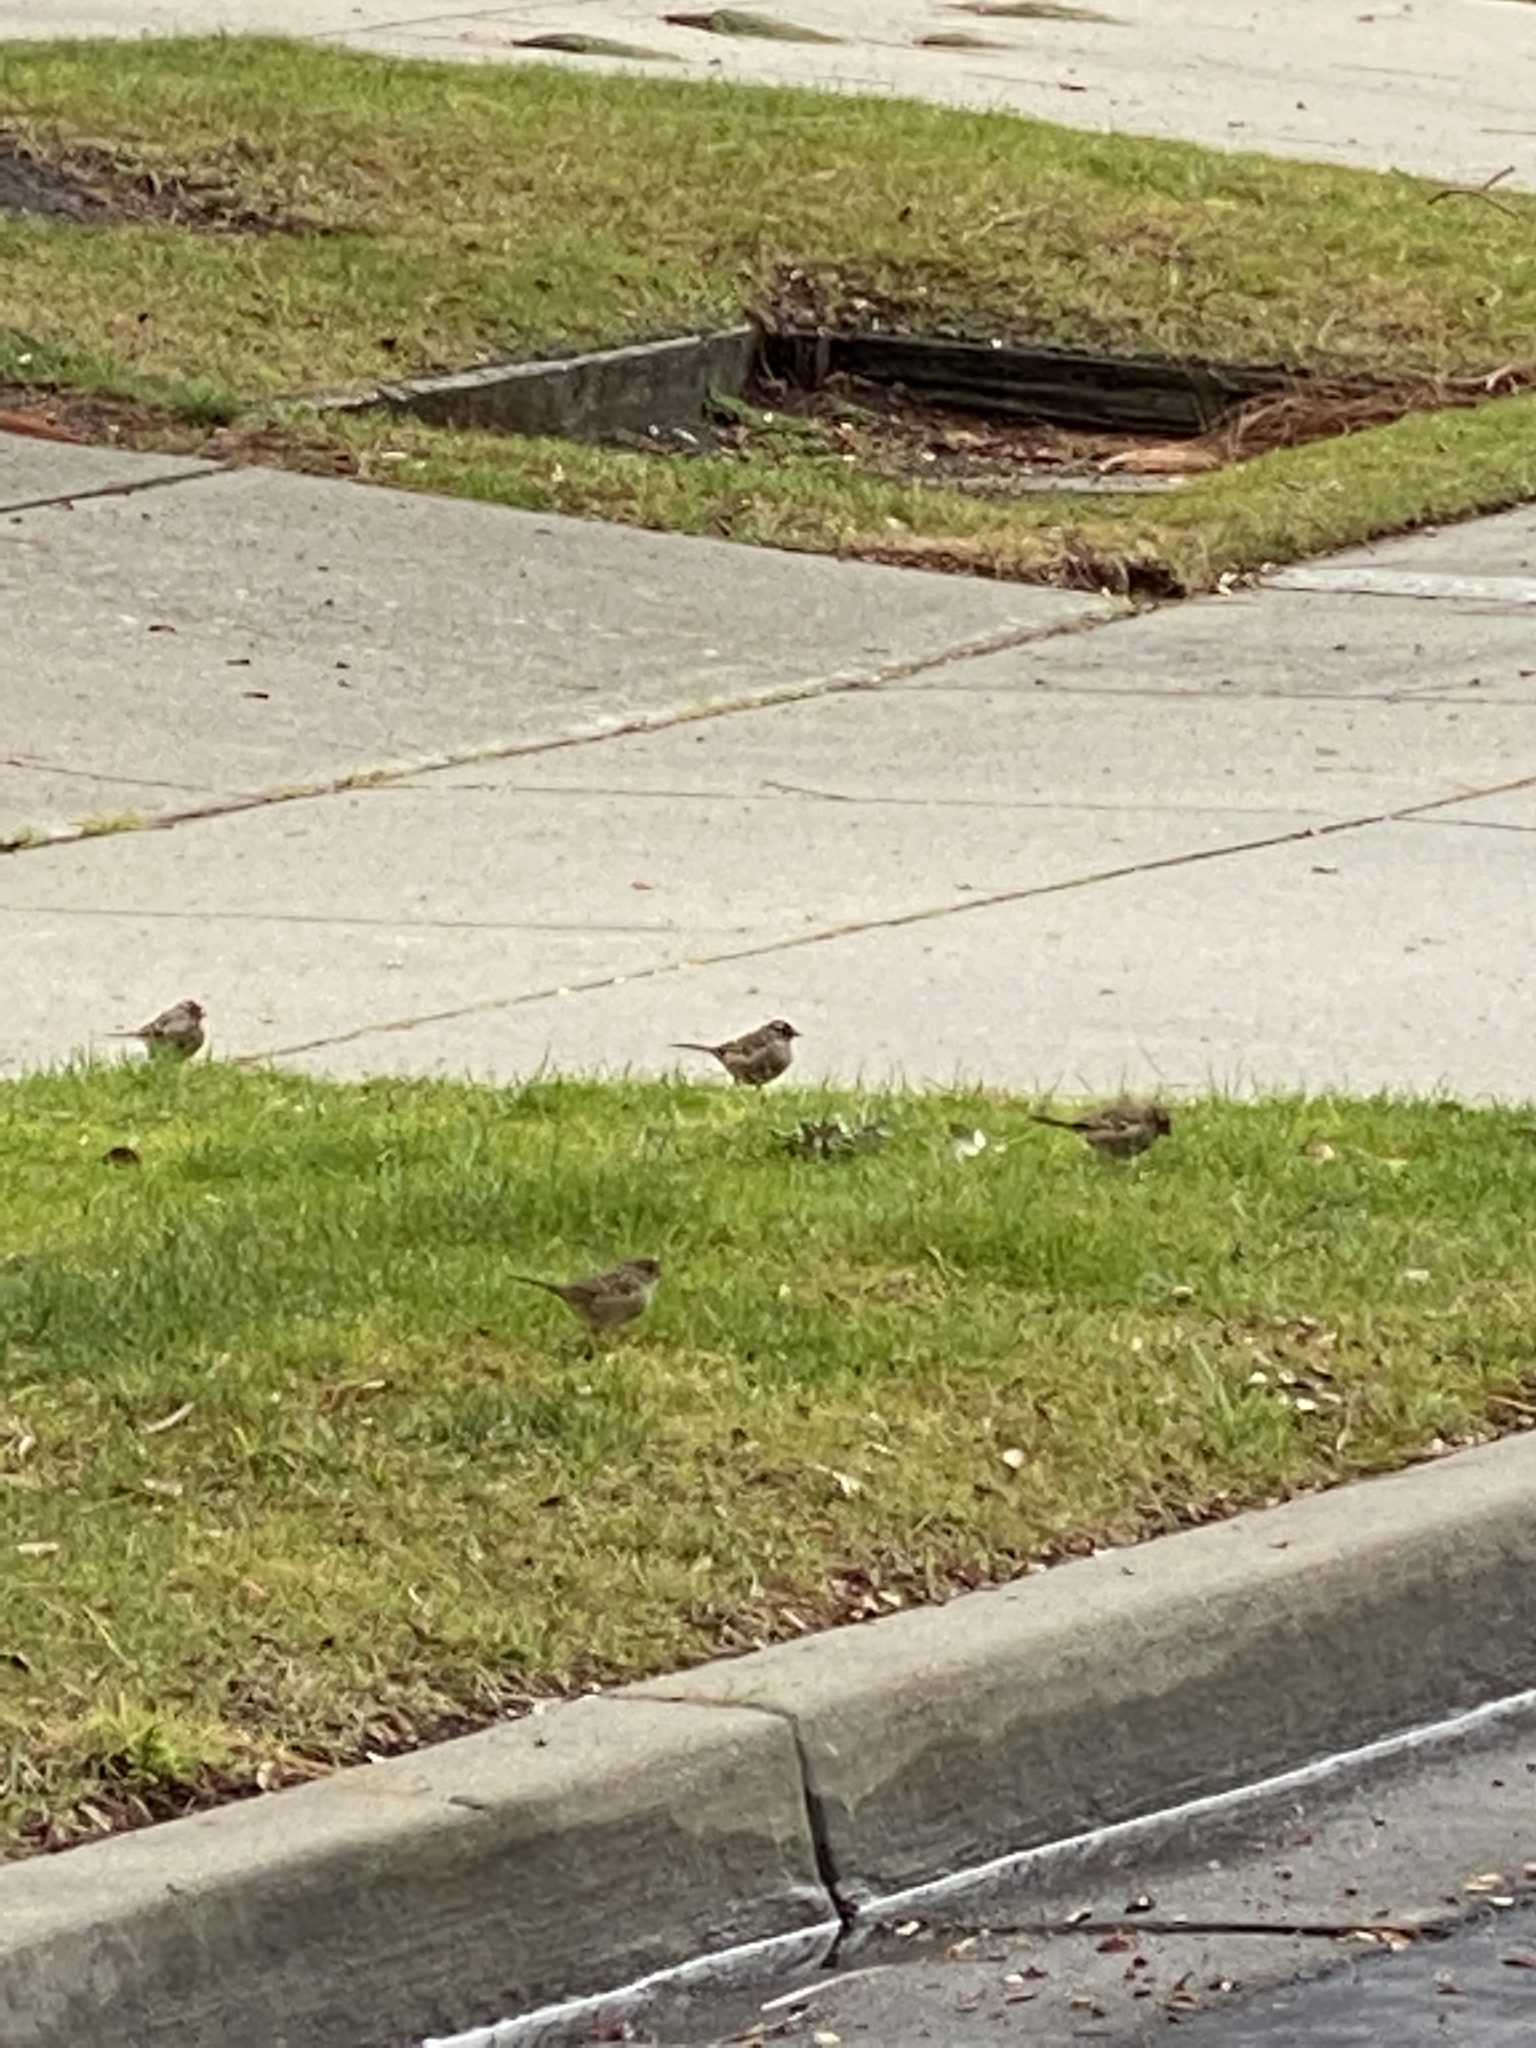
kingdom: Animalia
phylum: Chordata
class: Aves
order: Passeriformes
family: Passerellidae
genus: Zonotrichia
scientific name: Zonotrichia
